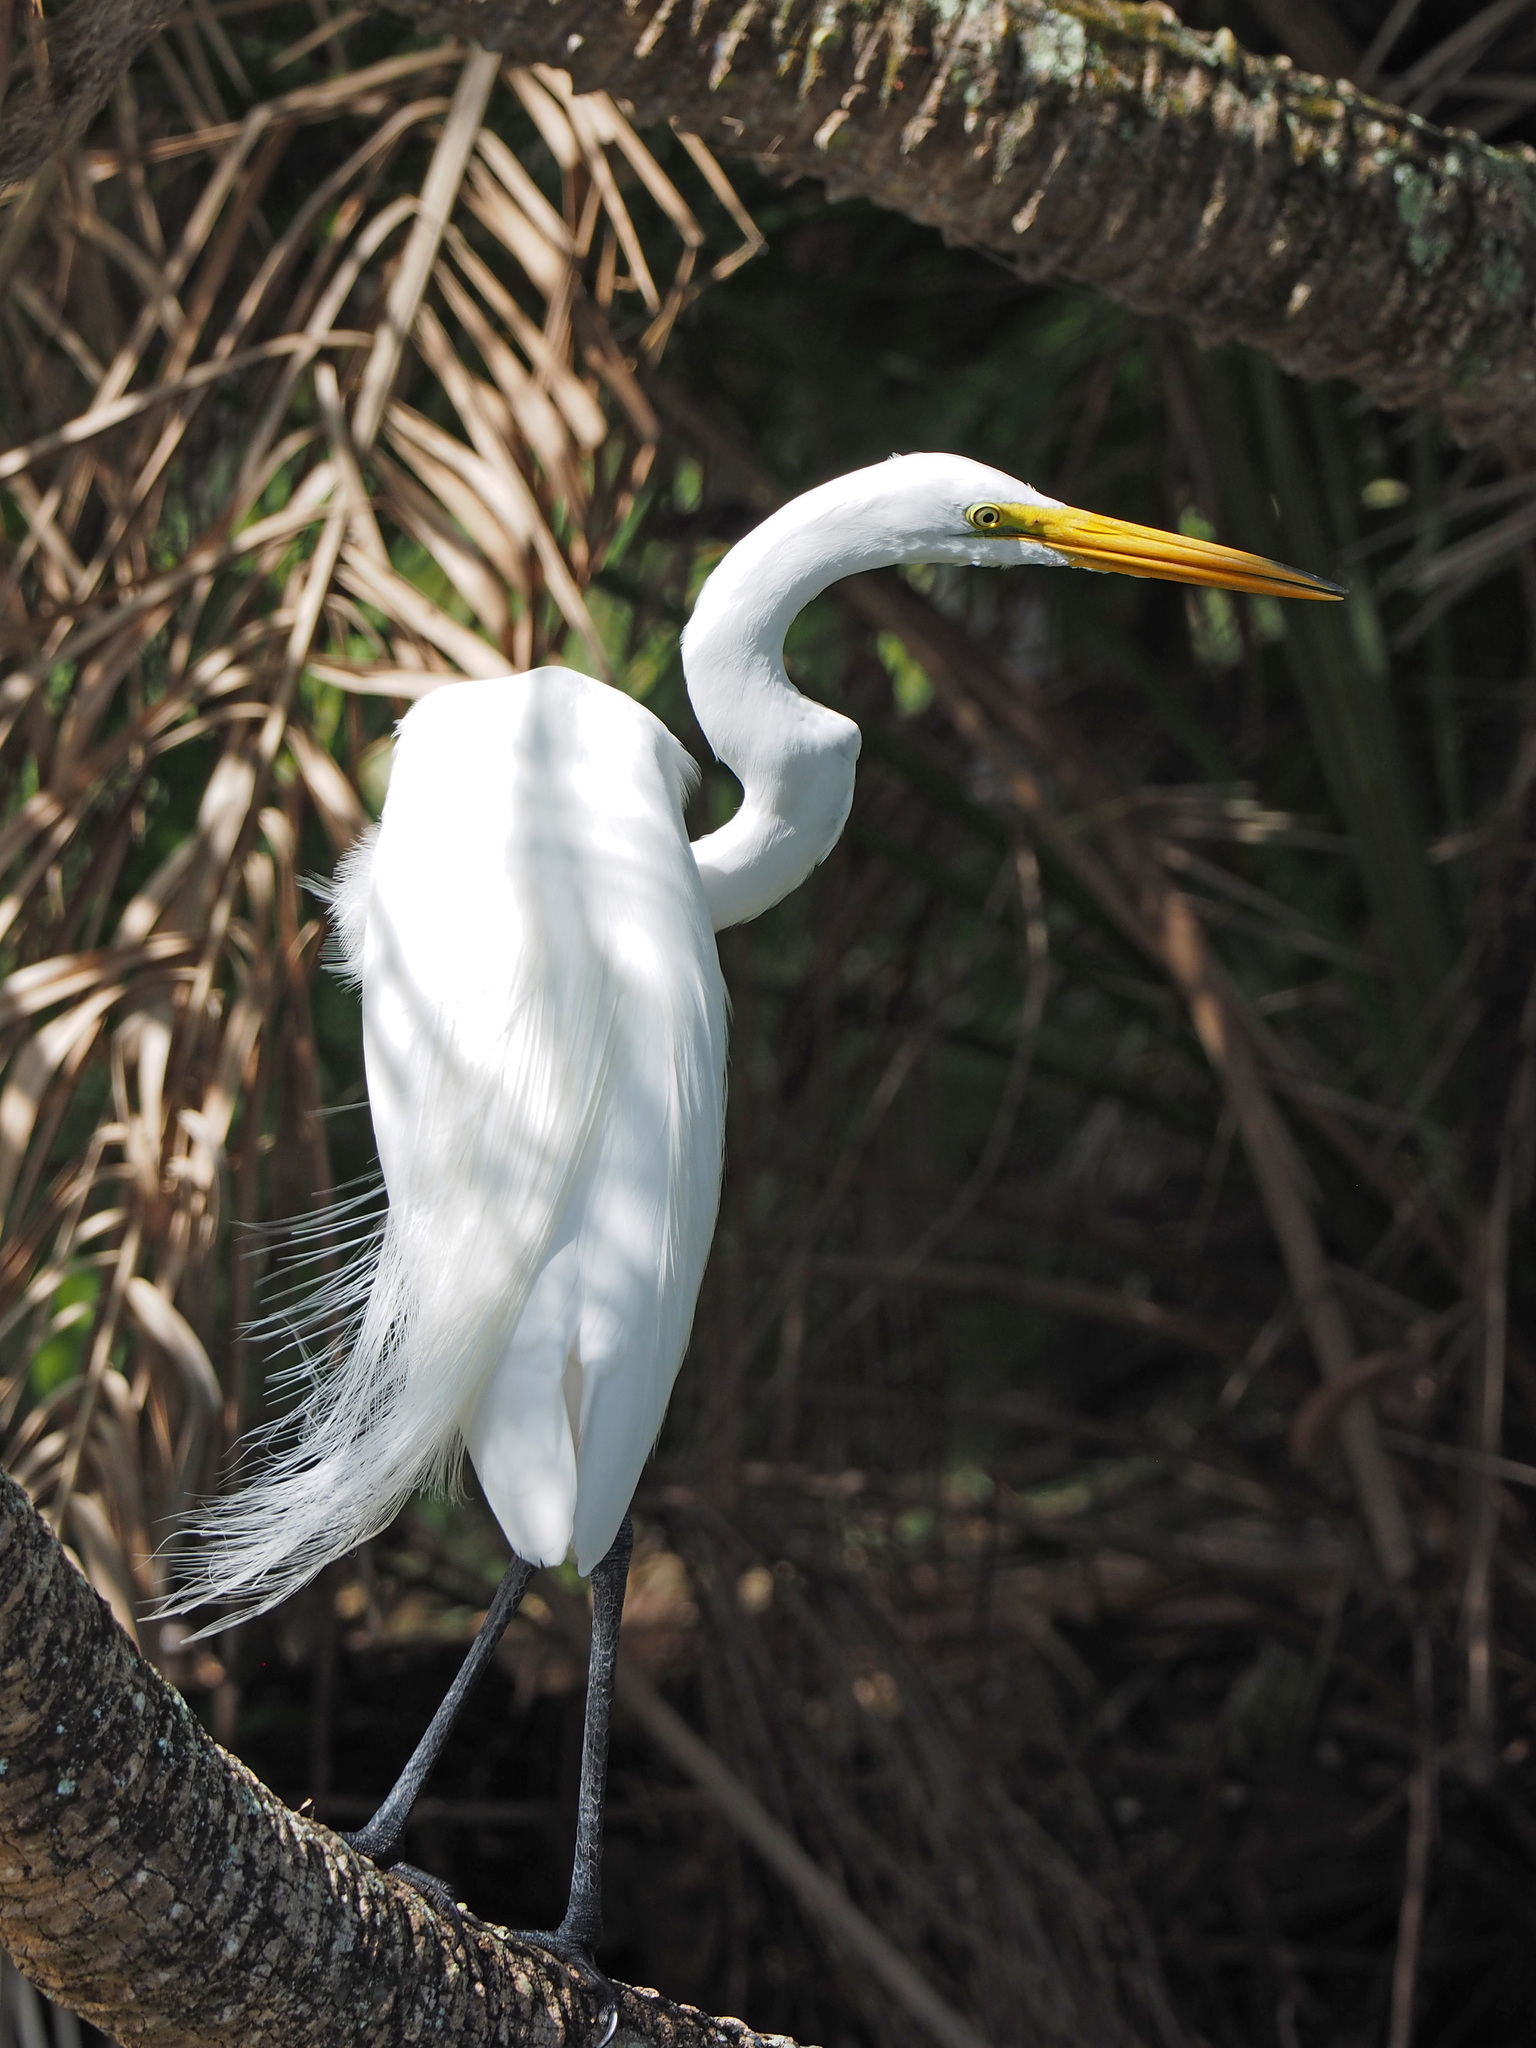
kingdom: Animalia
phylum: Chordata
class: Aves
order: Pelecaniformes
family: Ardeidae
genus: Ardea
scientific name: Ardea alba
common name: Great egret
